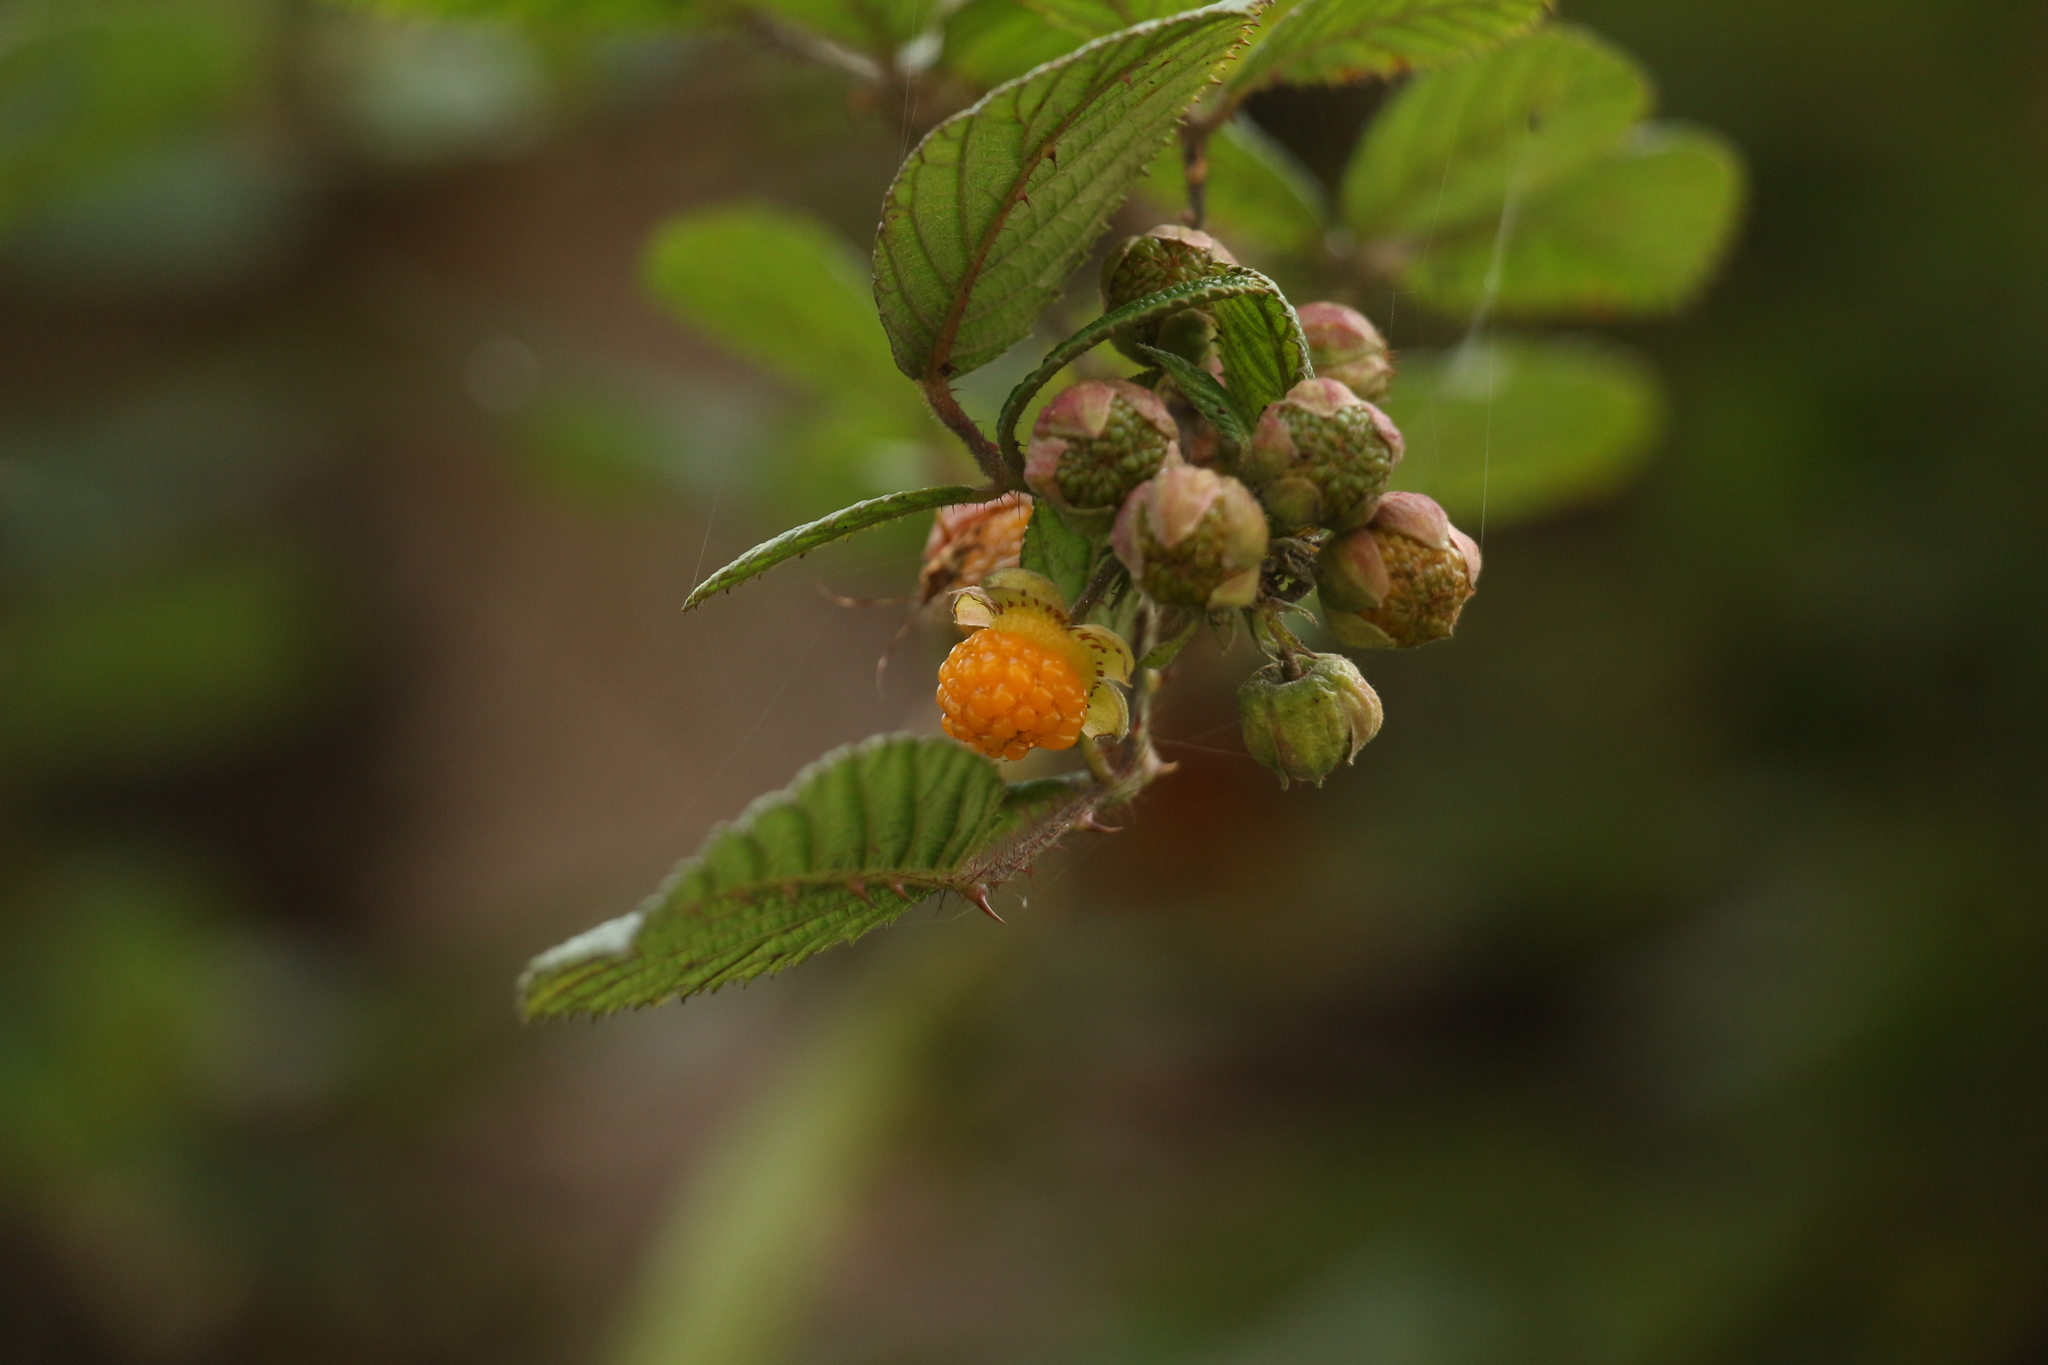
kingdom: Plantae
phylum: Tracheophyta
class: Magnoliopsida
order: Rosales
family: Rosaceae
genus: Rubus
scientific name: Rubus ellipticus
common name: Cheeseberry
